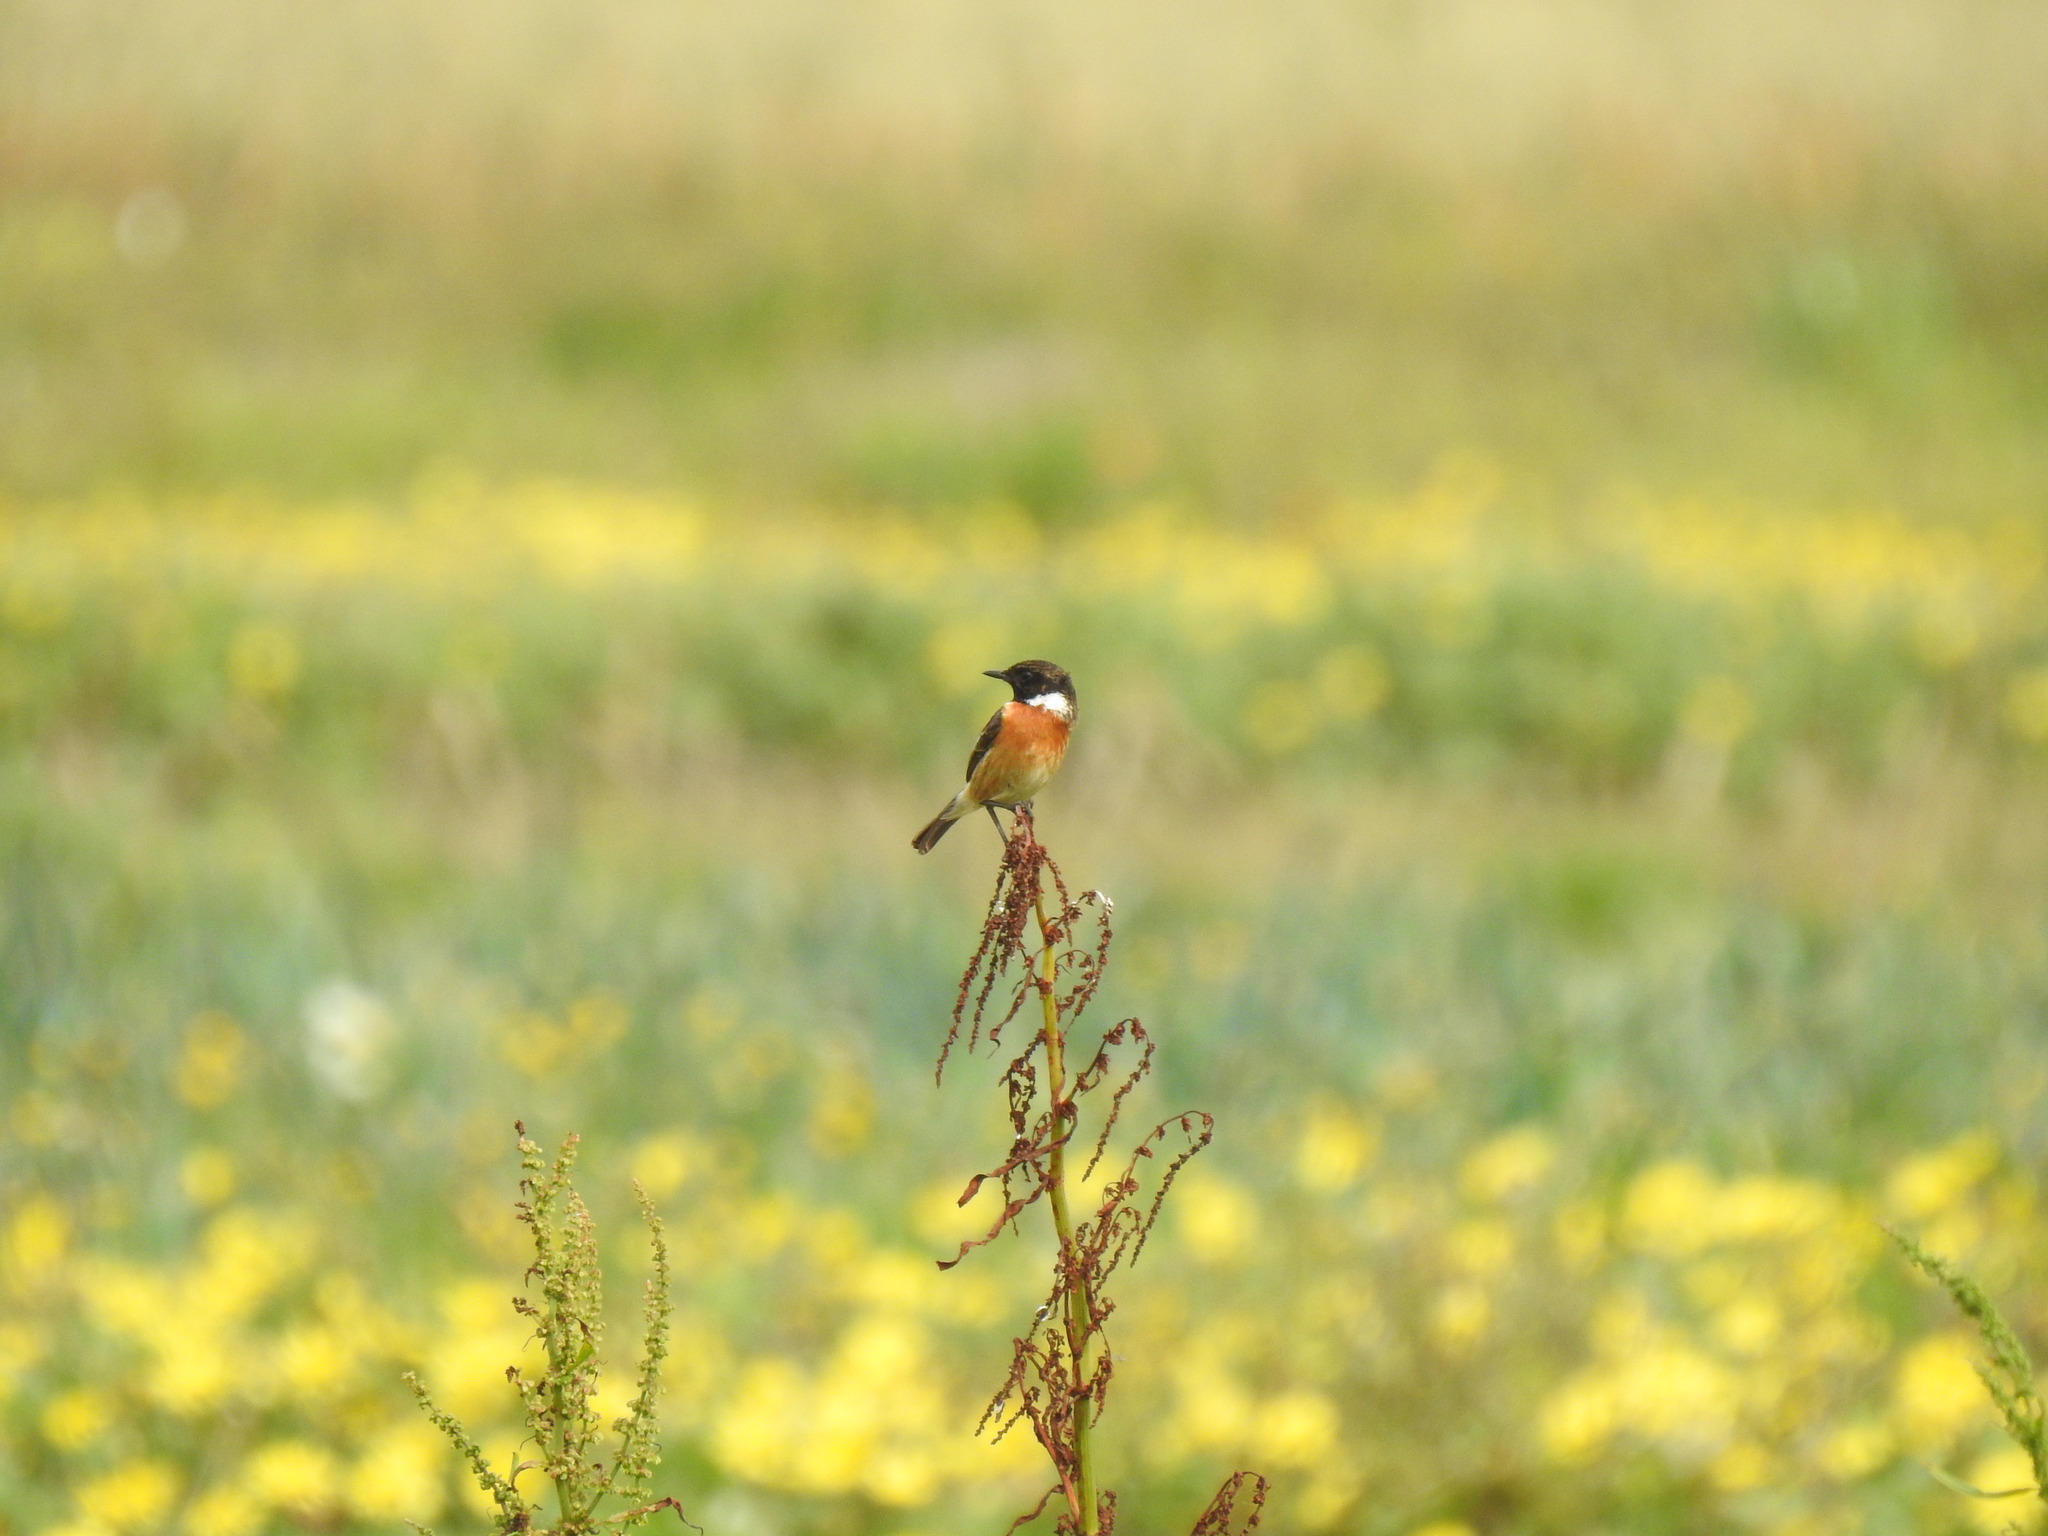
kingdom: Animalia
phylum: Chordata
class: Aves
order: Passeriformes
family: Muscicapidae
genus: Saxicola
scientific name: Saxicola rubicola
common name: European stonechat
